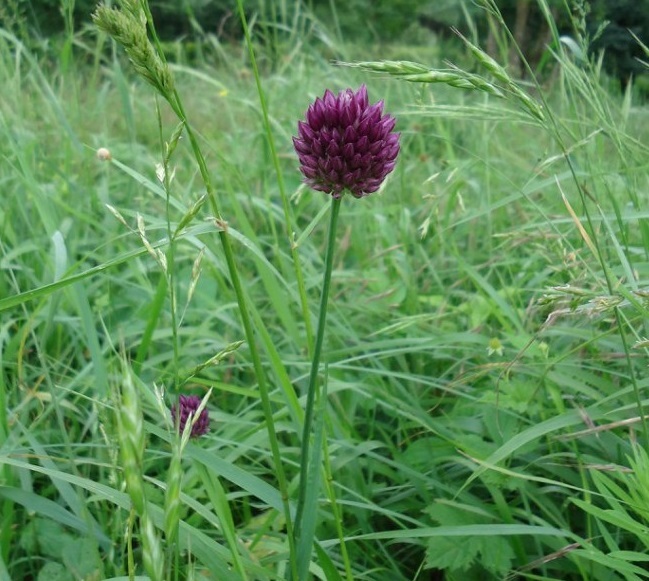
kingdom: Plantae
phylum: Tracheophyta
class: Liliopsida
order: Asparagales
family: Amaryllidaceae
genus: Allium
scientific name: Allium rotundum
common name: Sand leek
